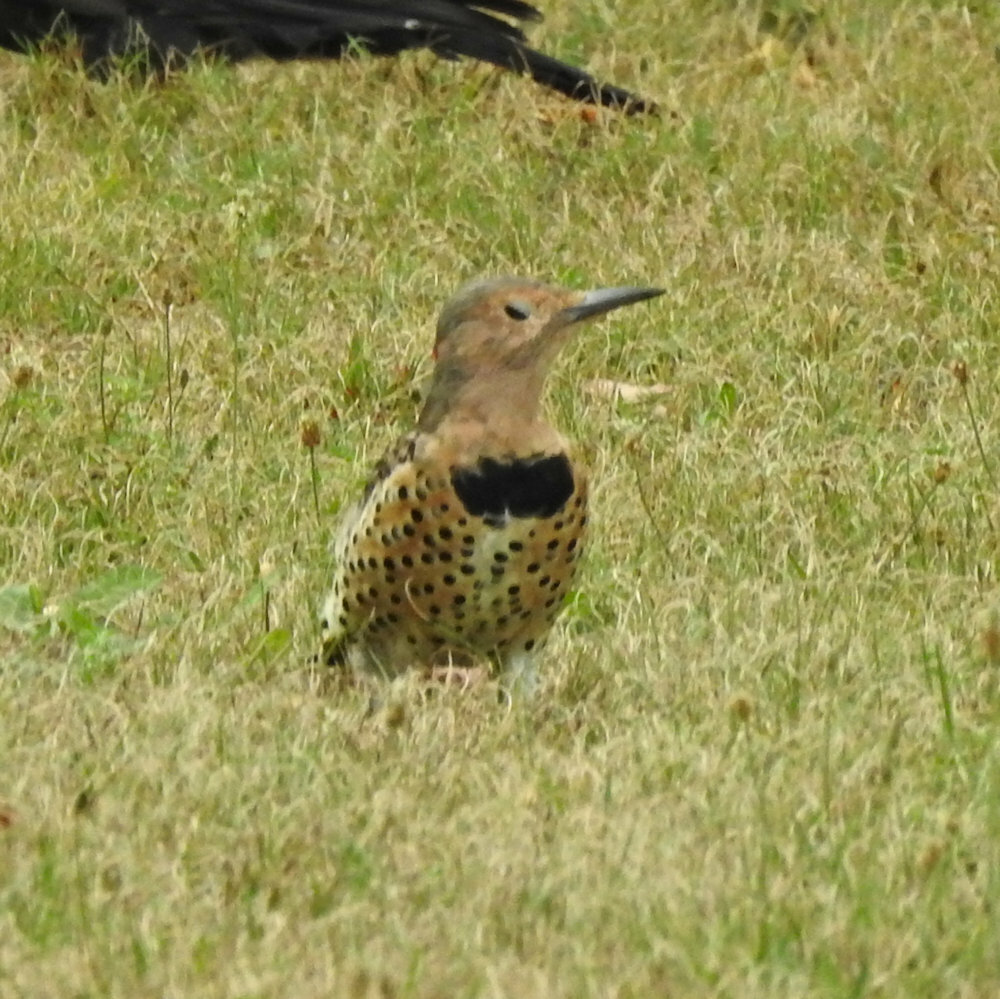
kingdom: Animalia
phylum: Chordata
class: Aves
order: Piciformes
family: Picidae
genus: Colaptes
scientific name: Colaptes auratus
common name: Northern flicker
